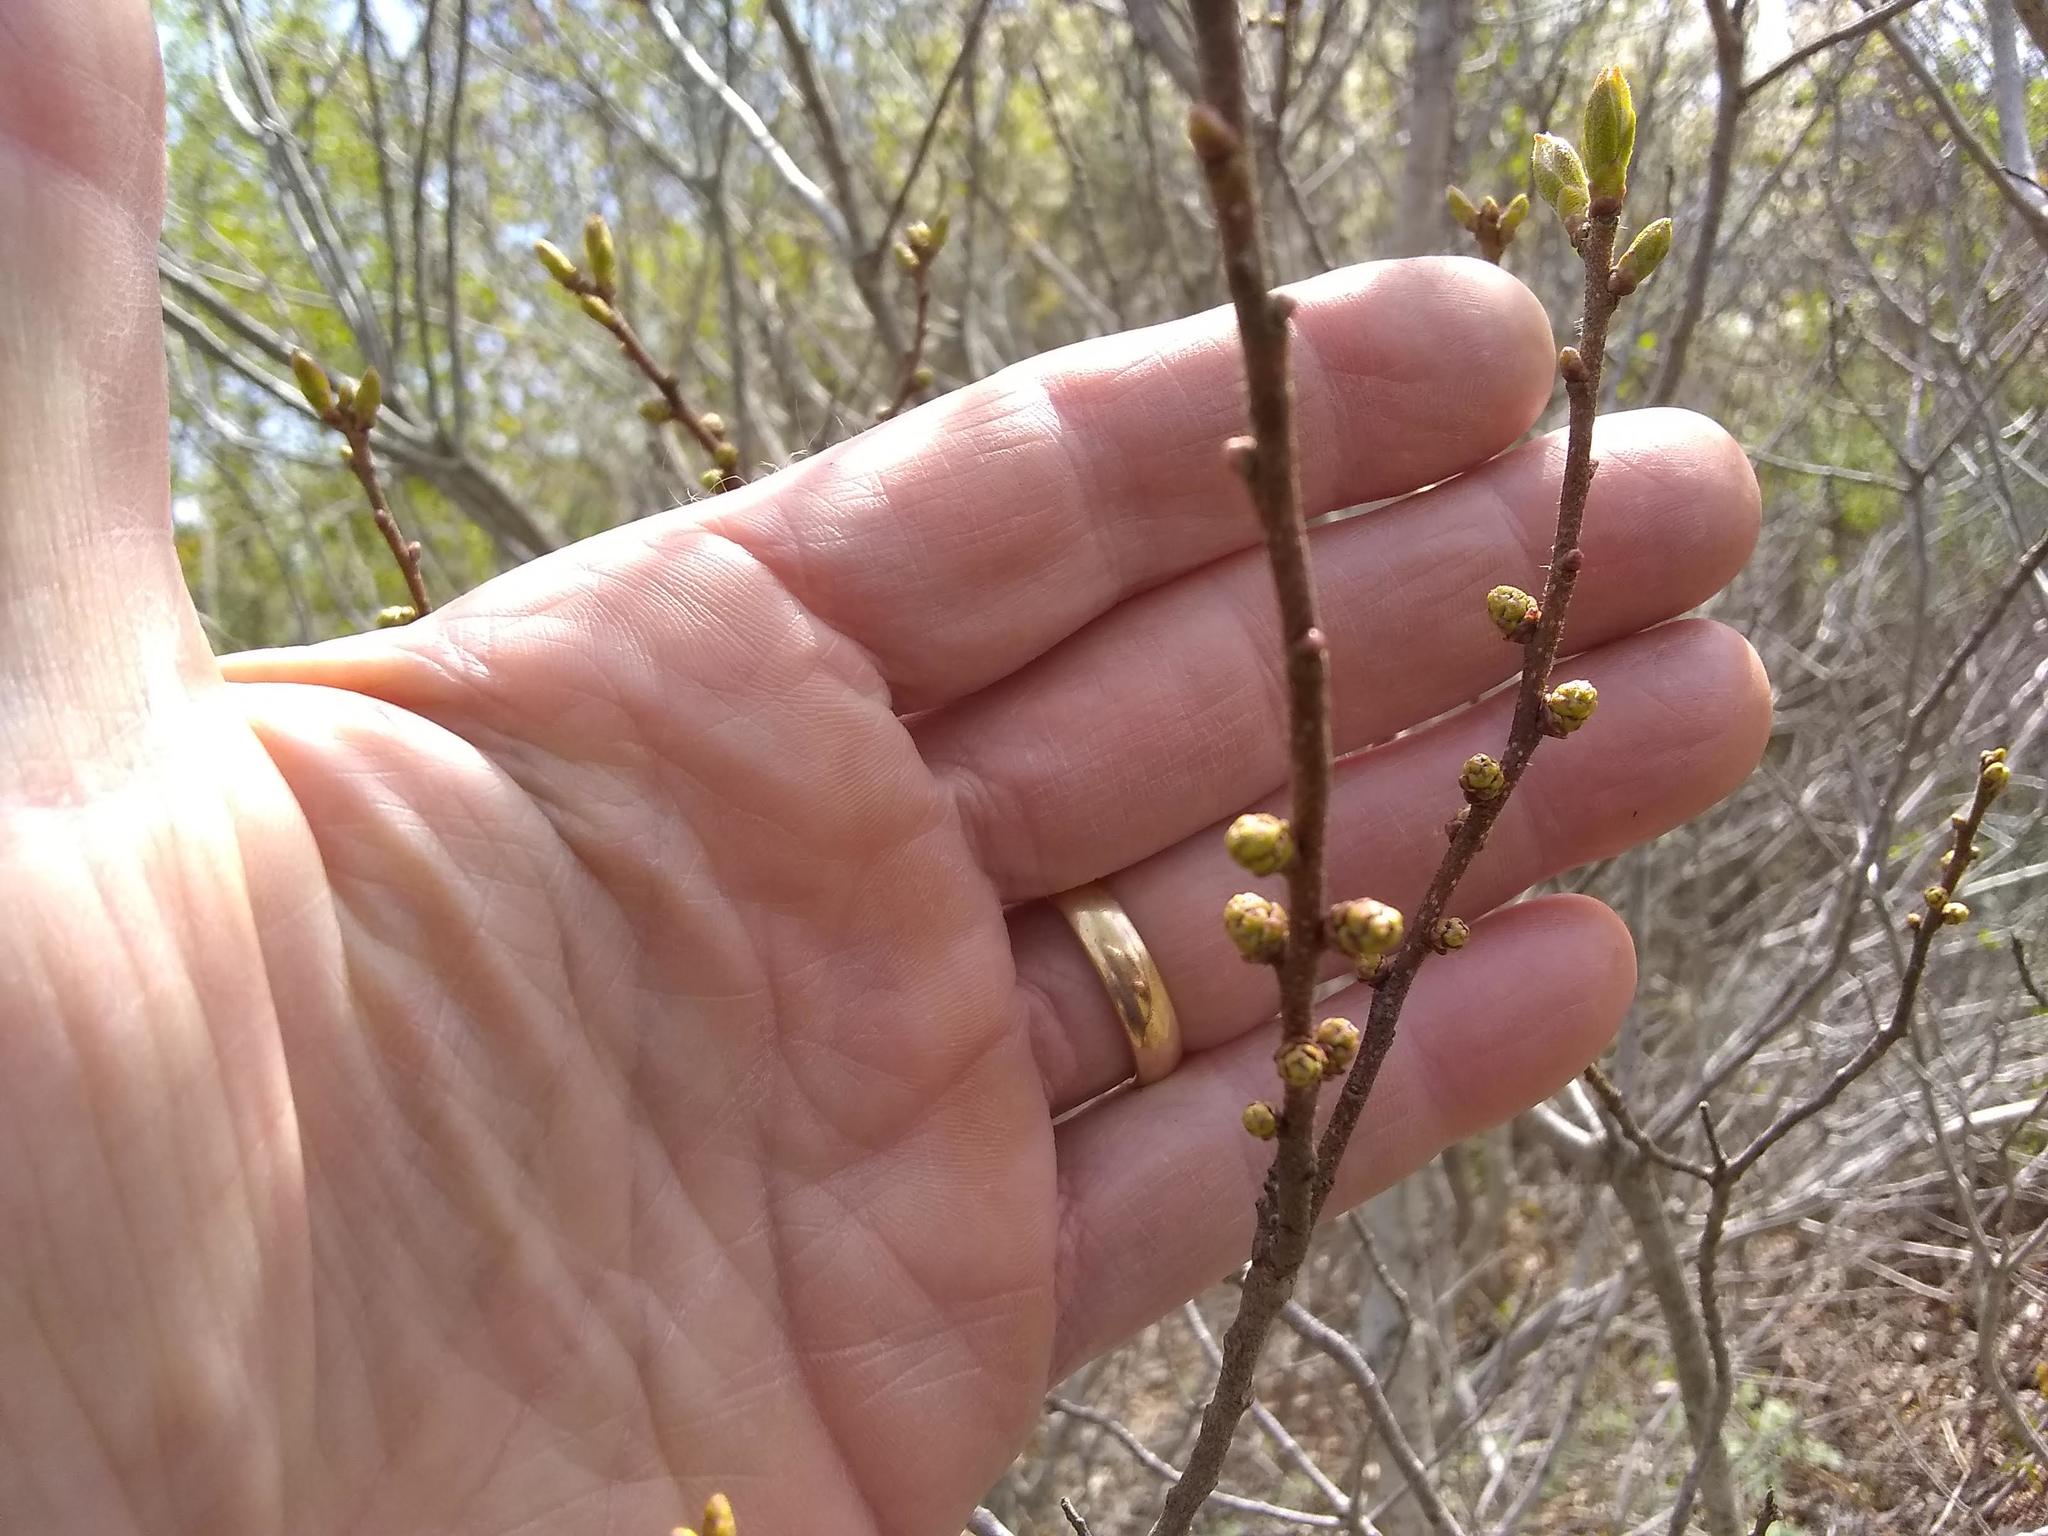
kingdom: Plantae
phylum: Tracheophyta
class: Magnoliopsida
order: Fagales
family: Myricaceae
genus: Morella
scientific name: Morella pensylvanica
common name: Northern bayberry
